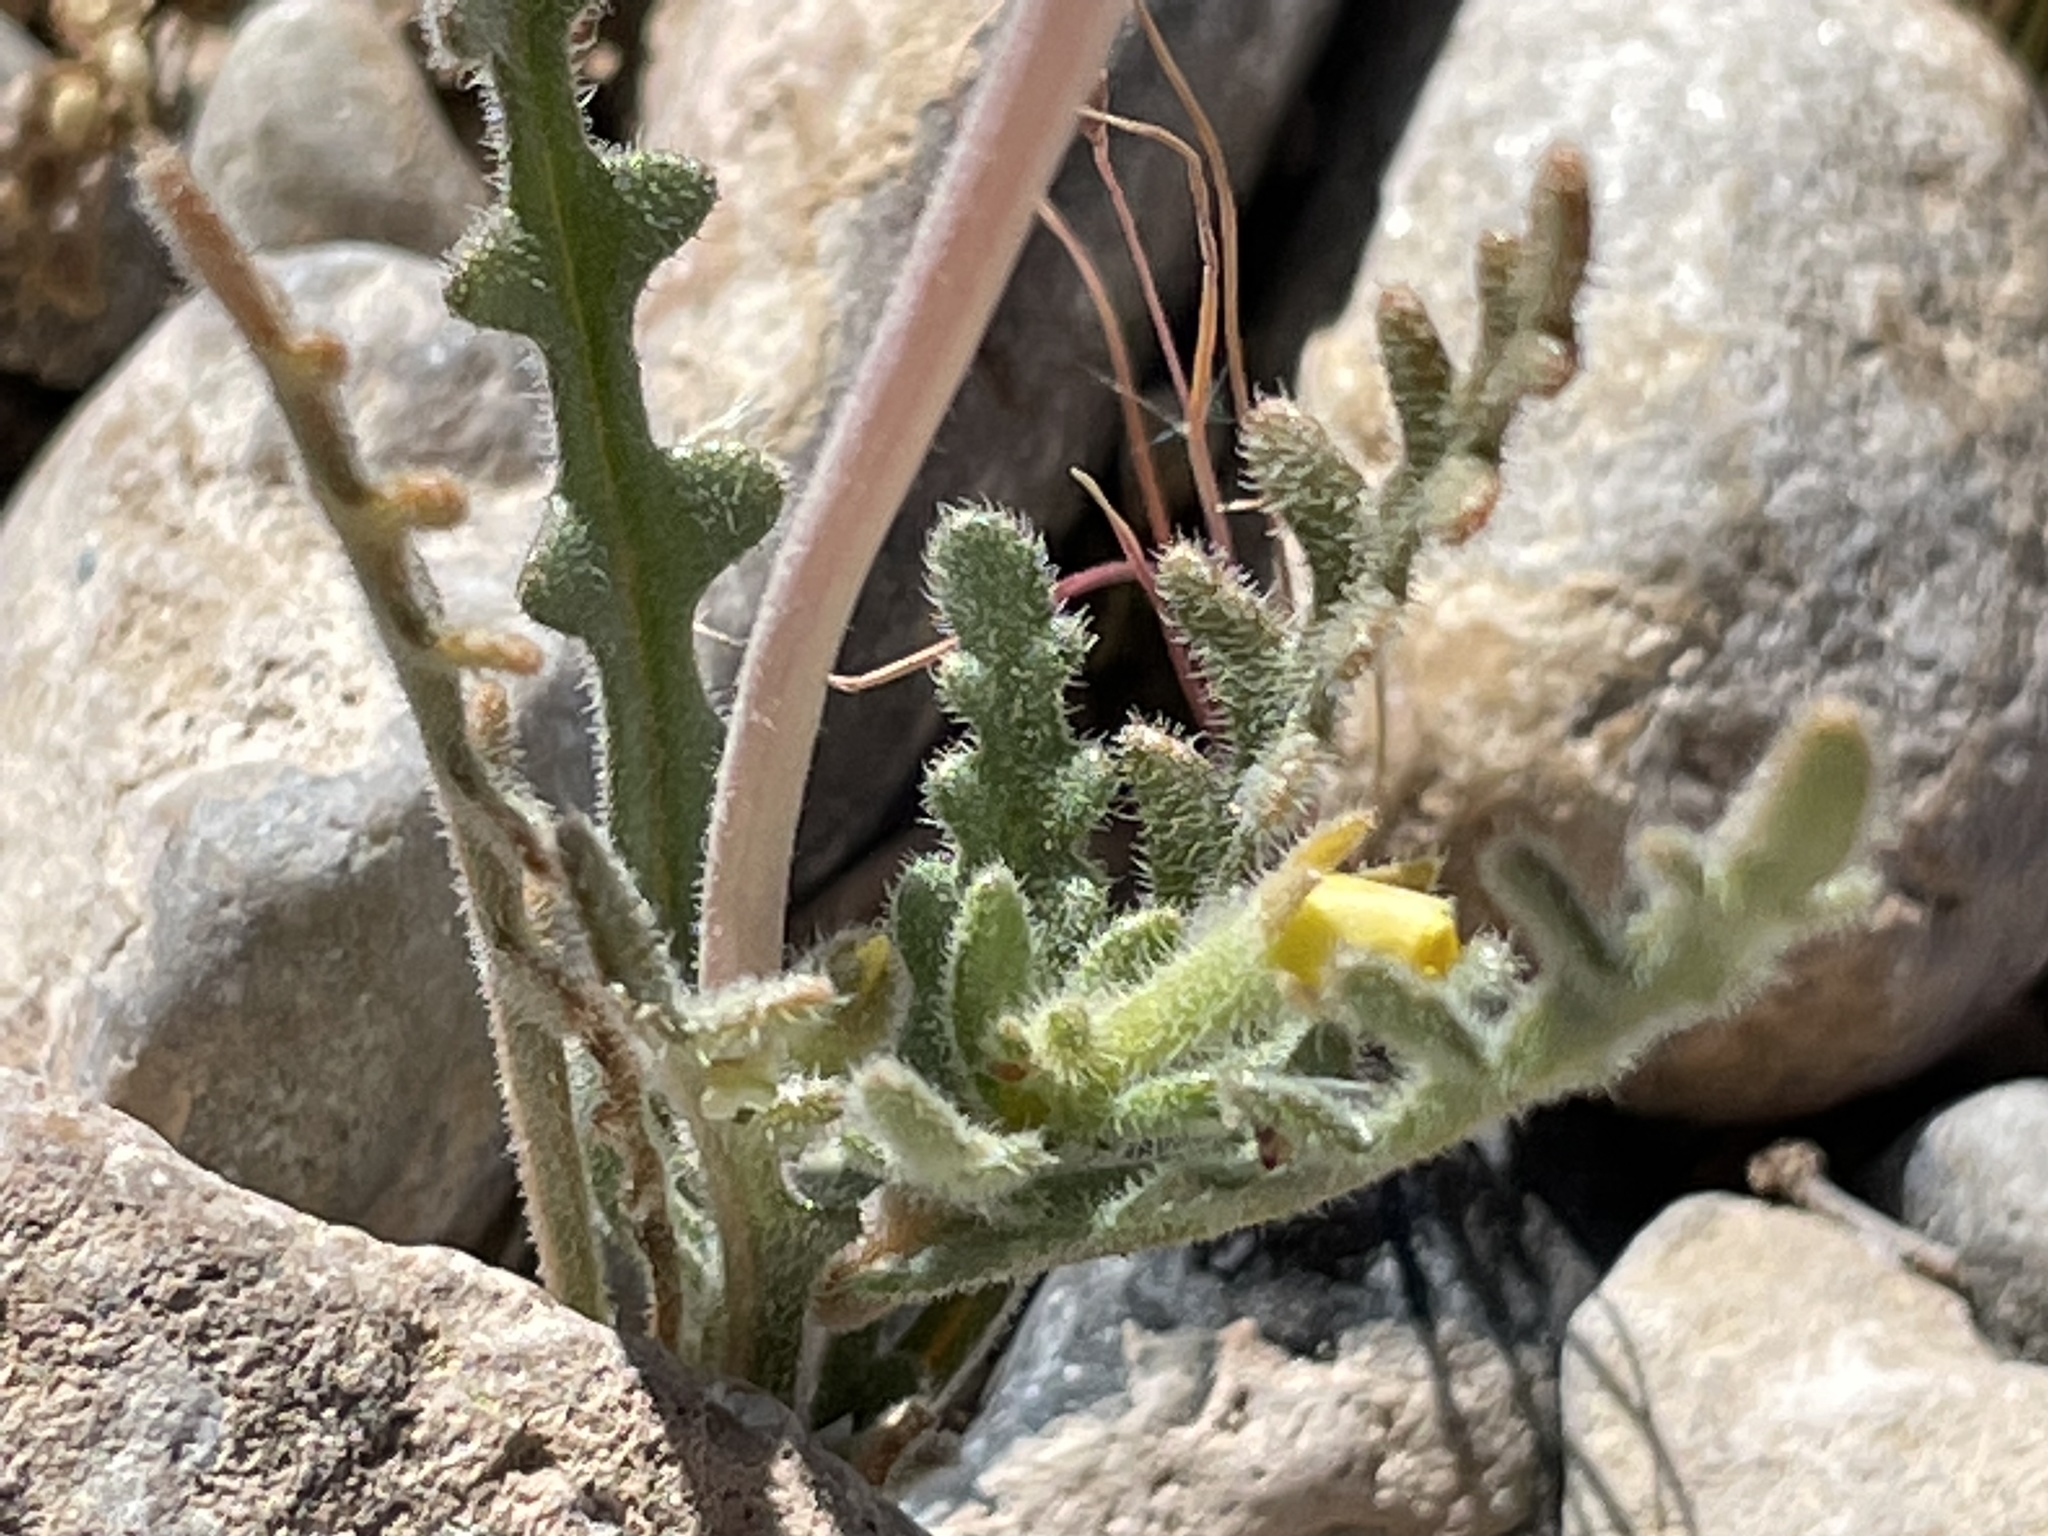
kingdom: Plantae
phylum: Tracheophyta
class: Magnoliopsida
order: Cornales
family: Loasaceae
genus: Mentzelia
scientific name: Mentzelia albicaulis
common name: White-stem blazingstar
